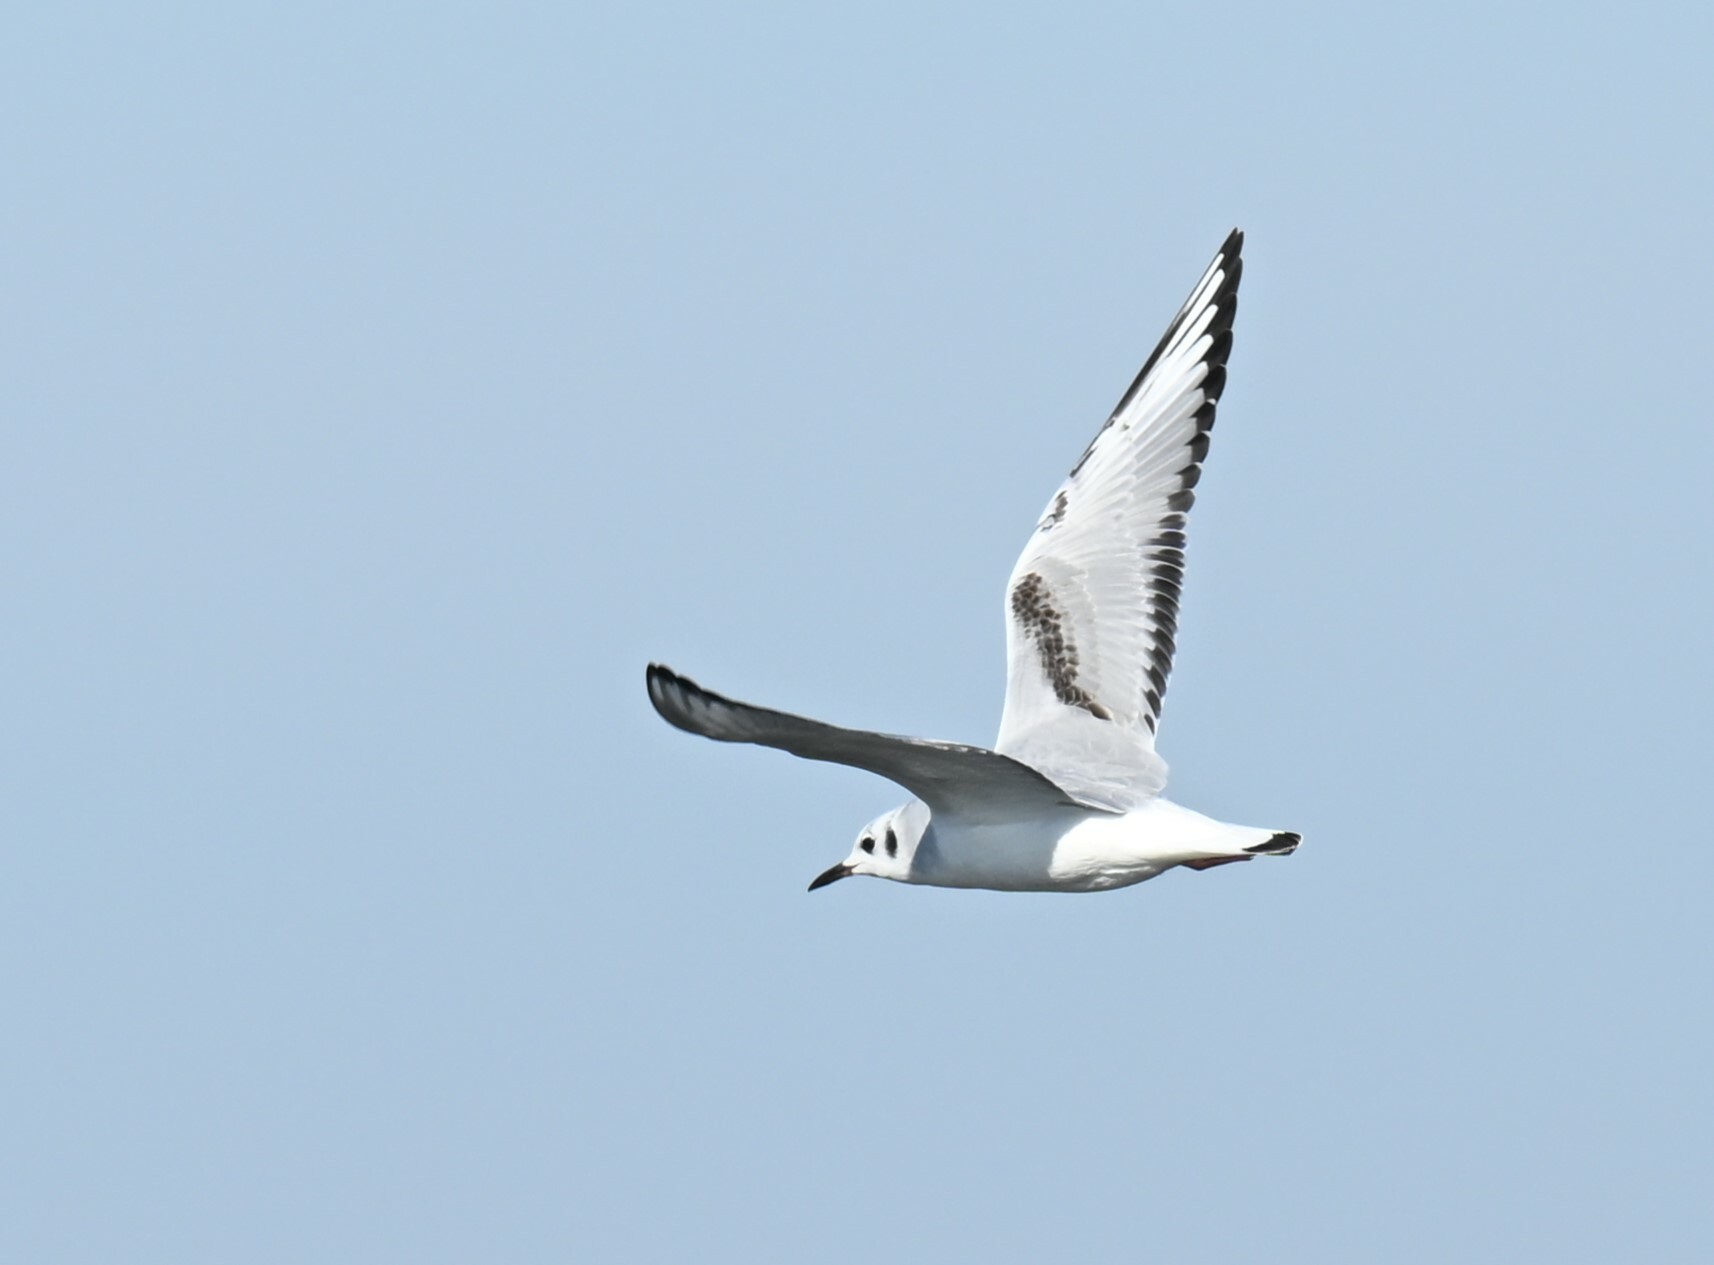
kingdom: Animalia
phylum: Chordata
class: Aves
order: Charadriiformes
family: Laridae
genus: Chroicocephalus
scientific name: Chroicocephalus philadelphia
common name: Bonaparte's gull
